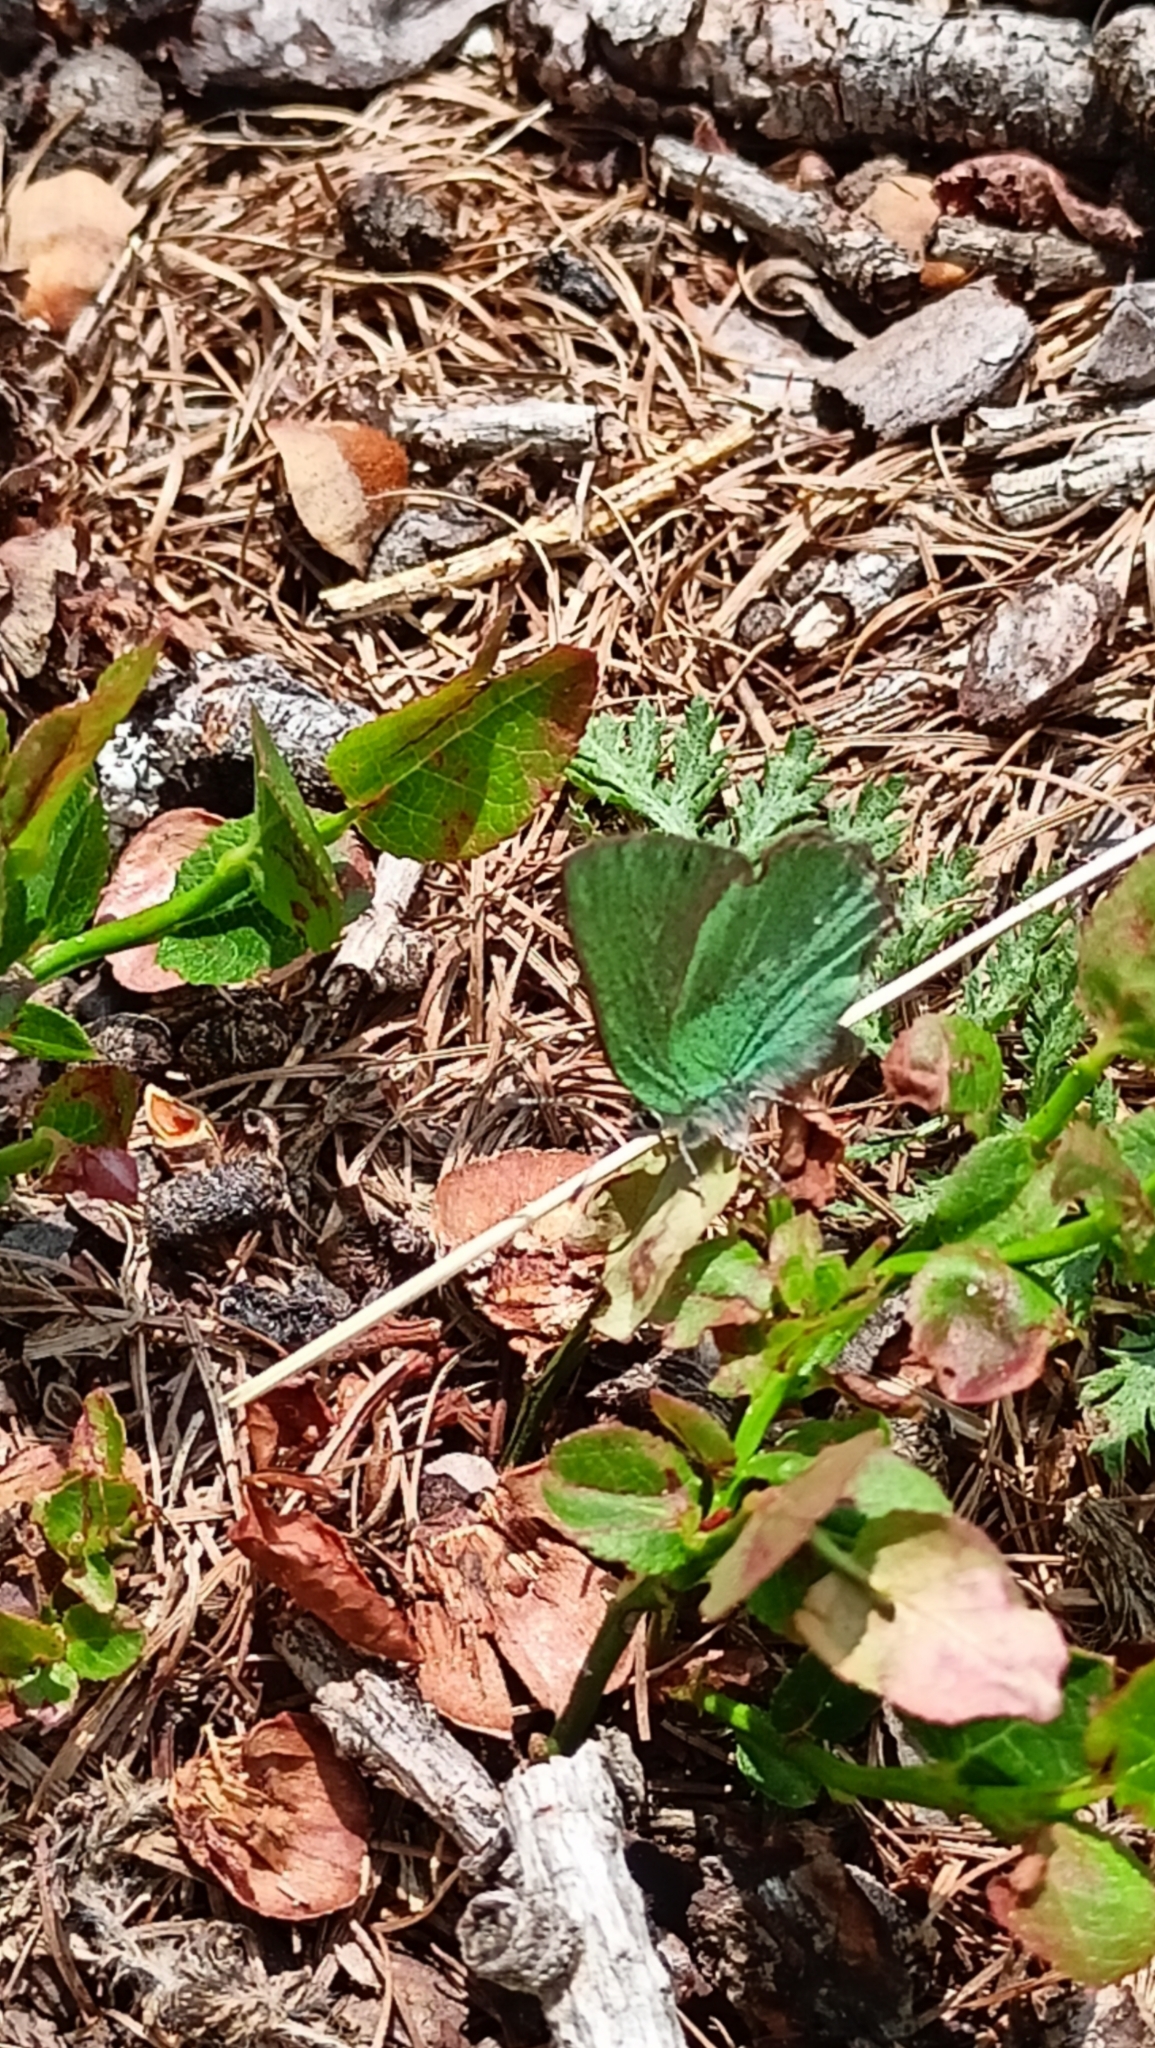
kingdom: Animalia
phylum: Arthropoda
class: Insecta
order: Lepidoptera
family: Lycaenidae
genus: Callophrys
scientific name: Callophrys rubi
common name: Green hairstreak
